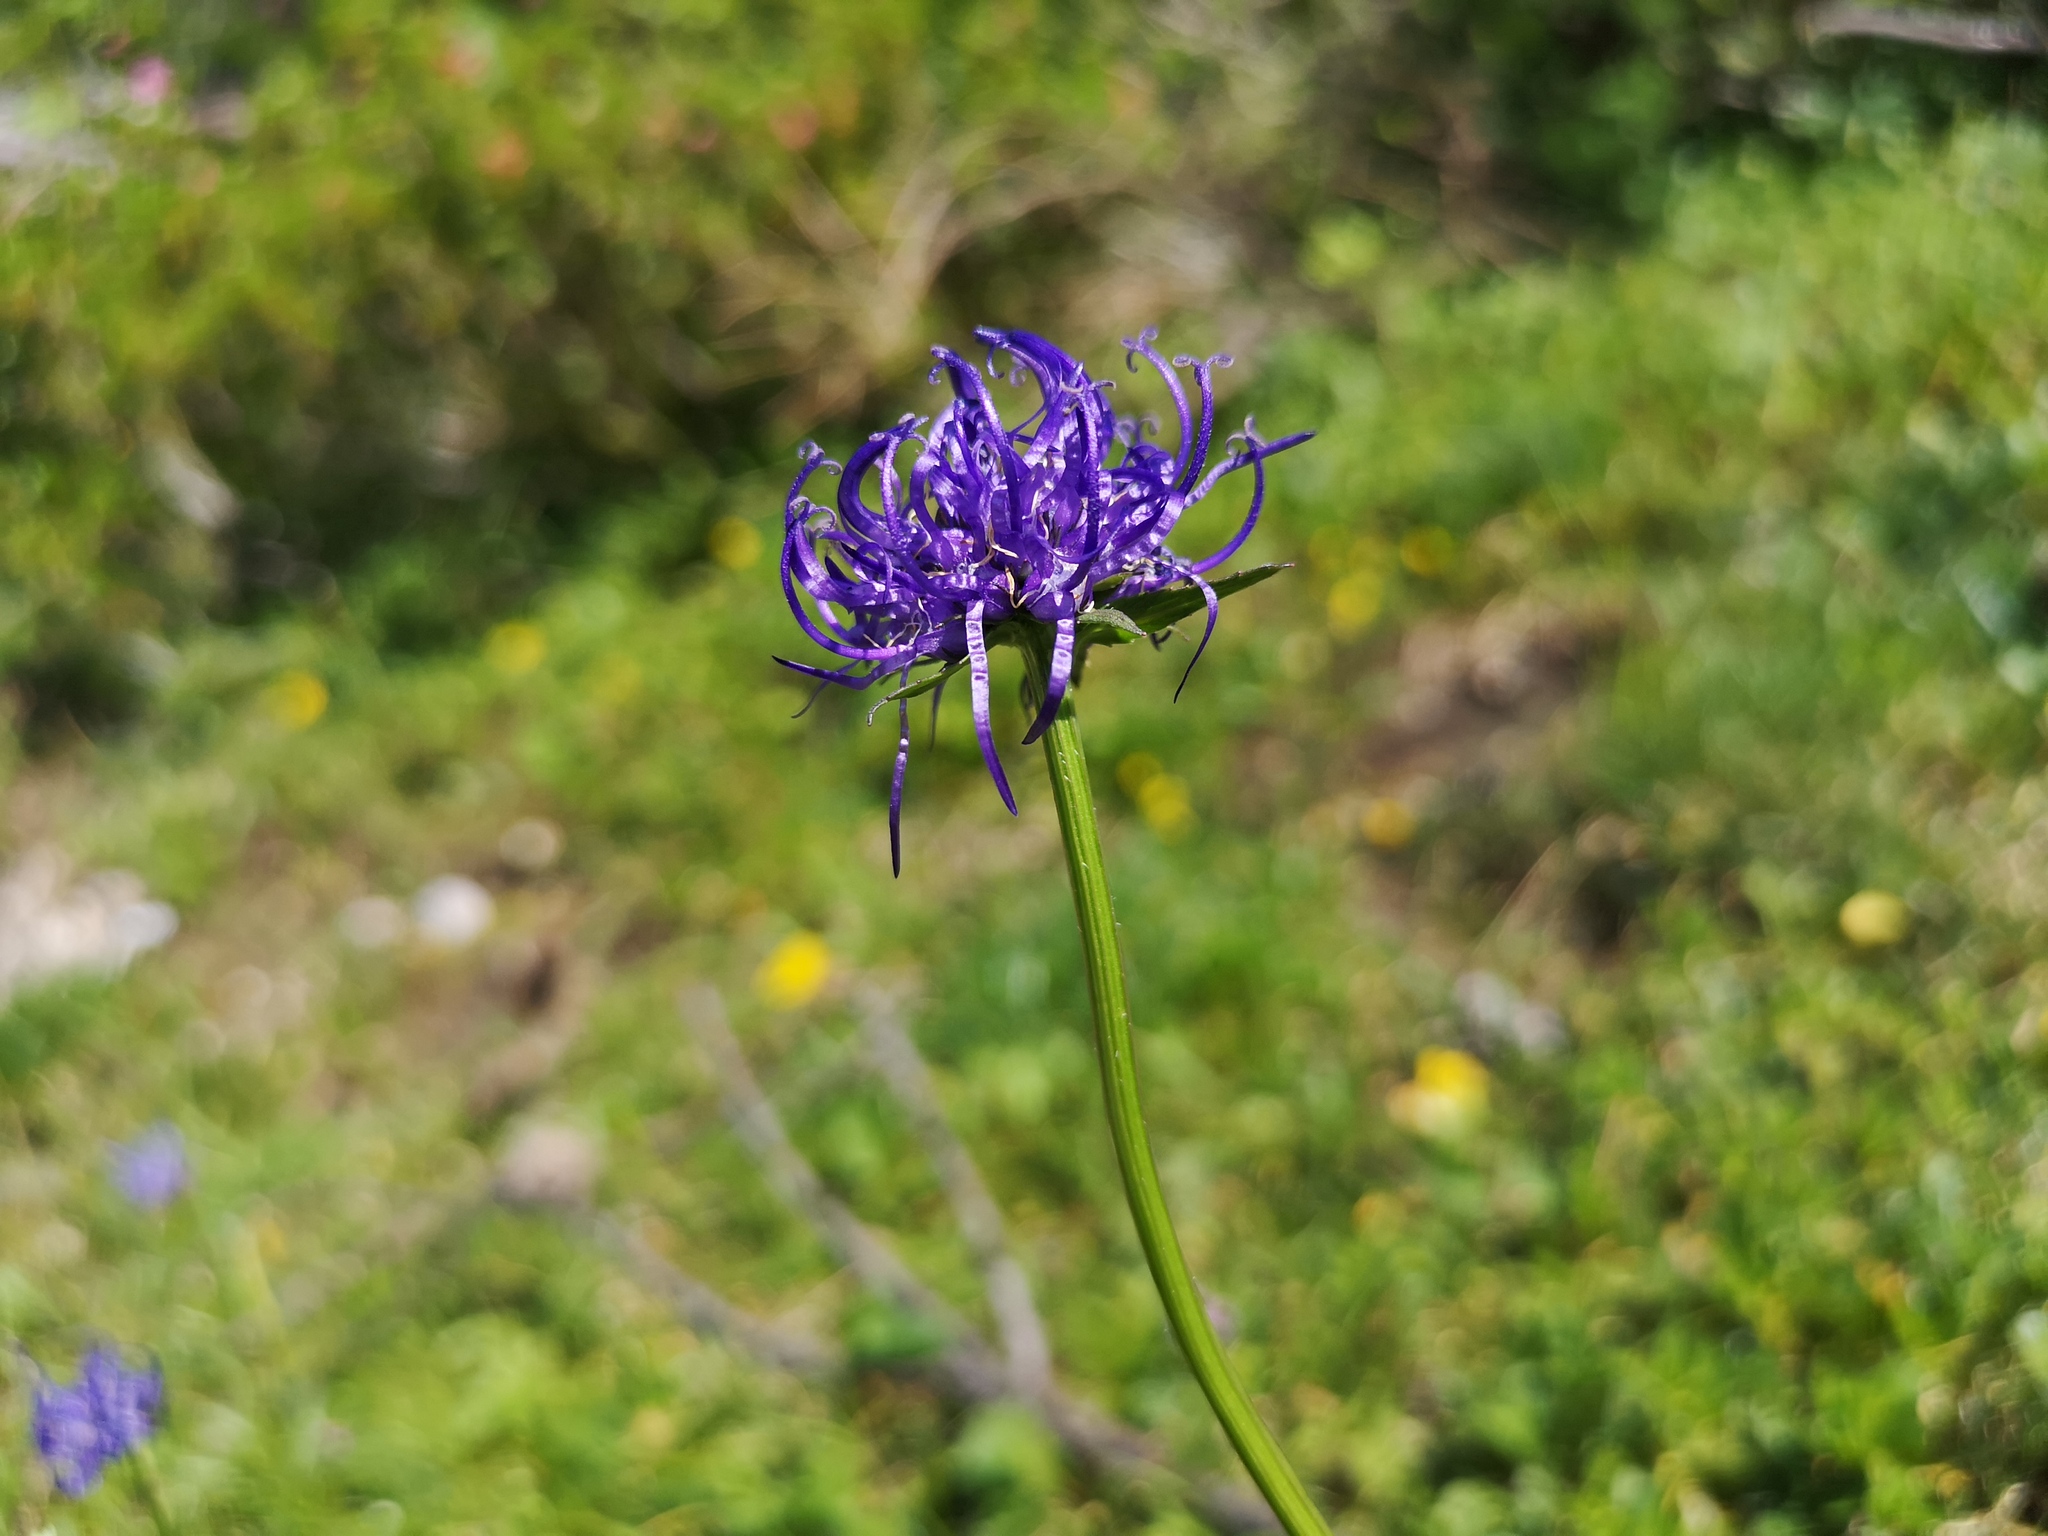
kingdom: Plantae
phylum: Tracheophyta
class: Magnoliopsida
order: Asterales
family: Campanulaceae
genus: Phyteuma
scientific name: Phyteuma orbiculare
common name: Round-headed rampion
